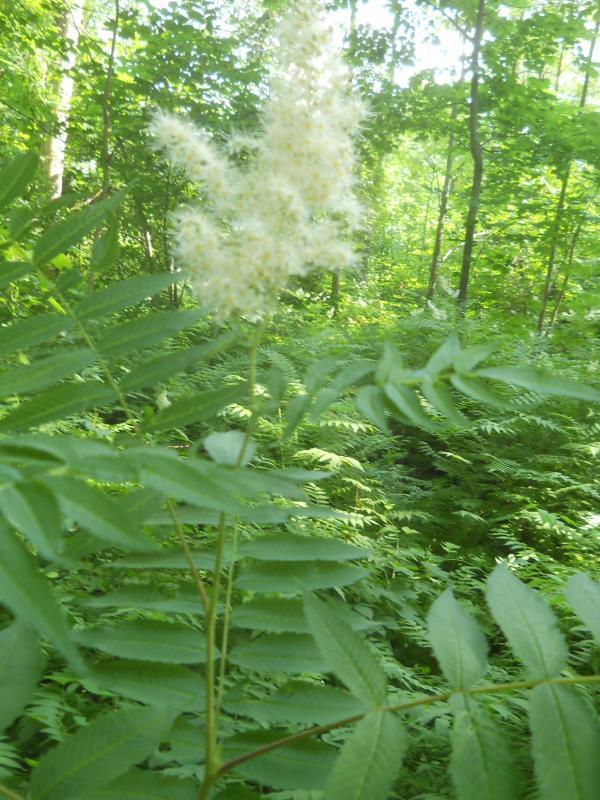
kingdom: Plantae
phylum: Tracheophyta
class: Magnoliopsida
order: Rosales
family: Rosaceae
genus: Sorbaria
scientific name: Sorbaria sorbifolia
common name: False spiraea
